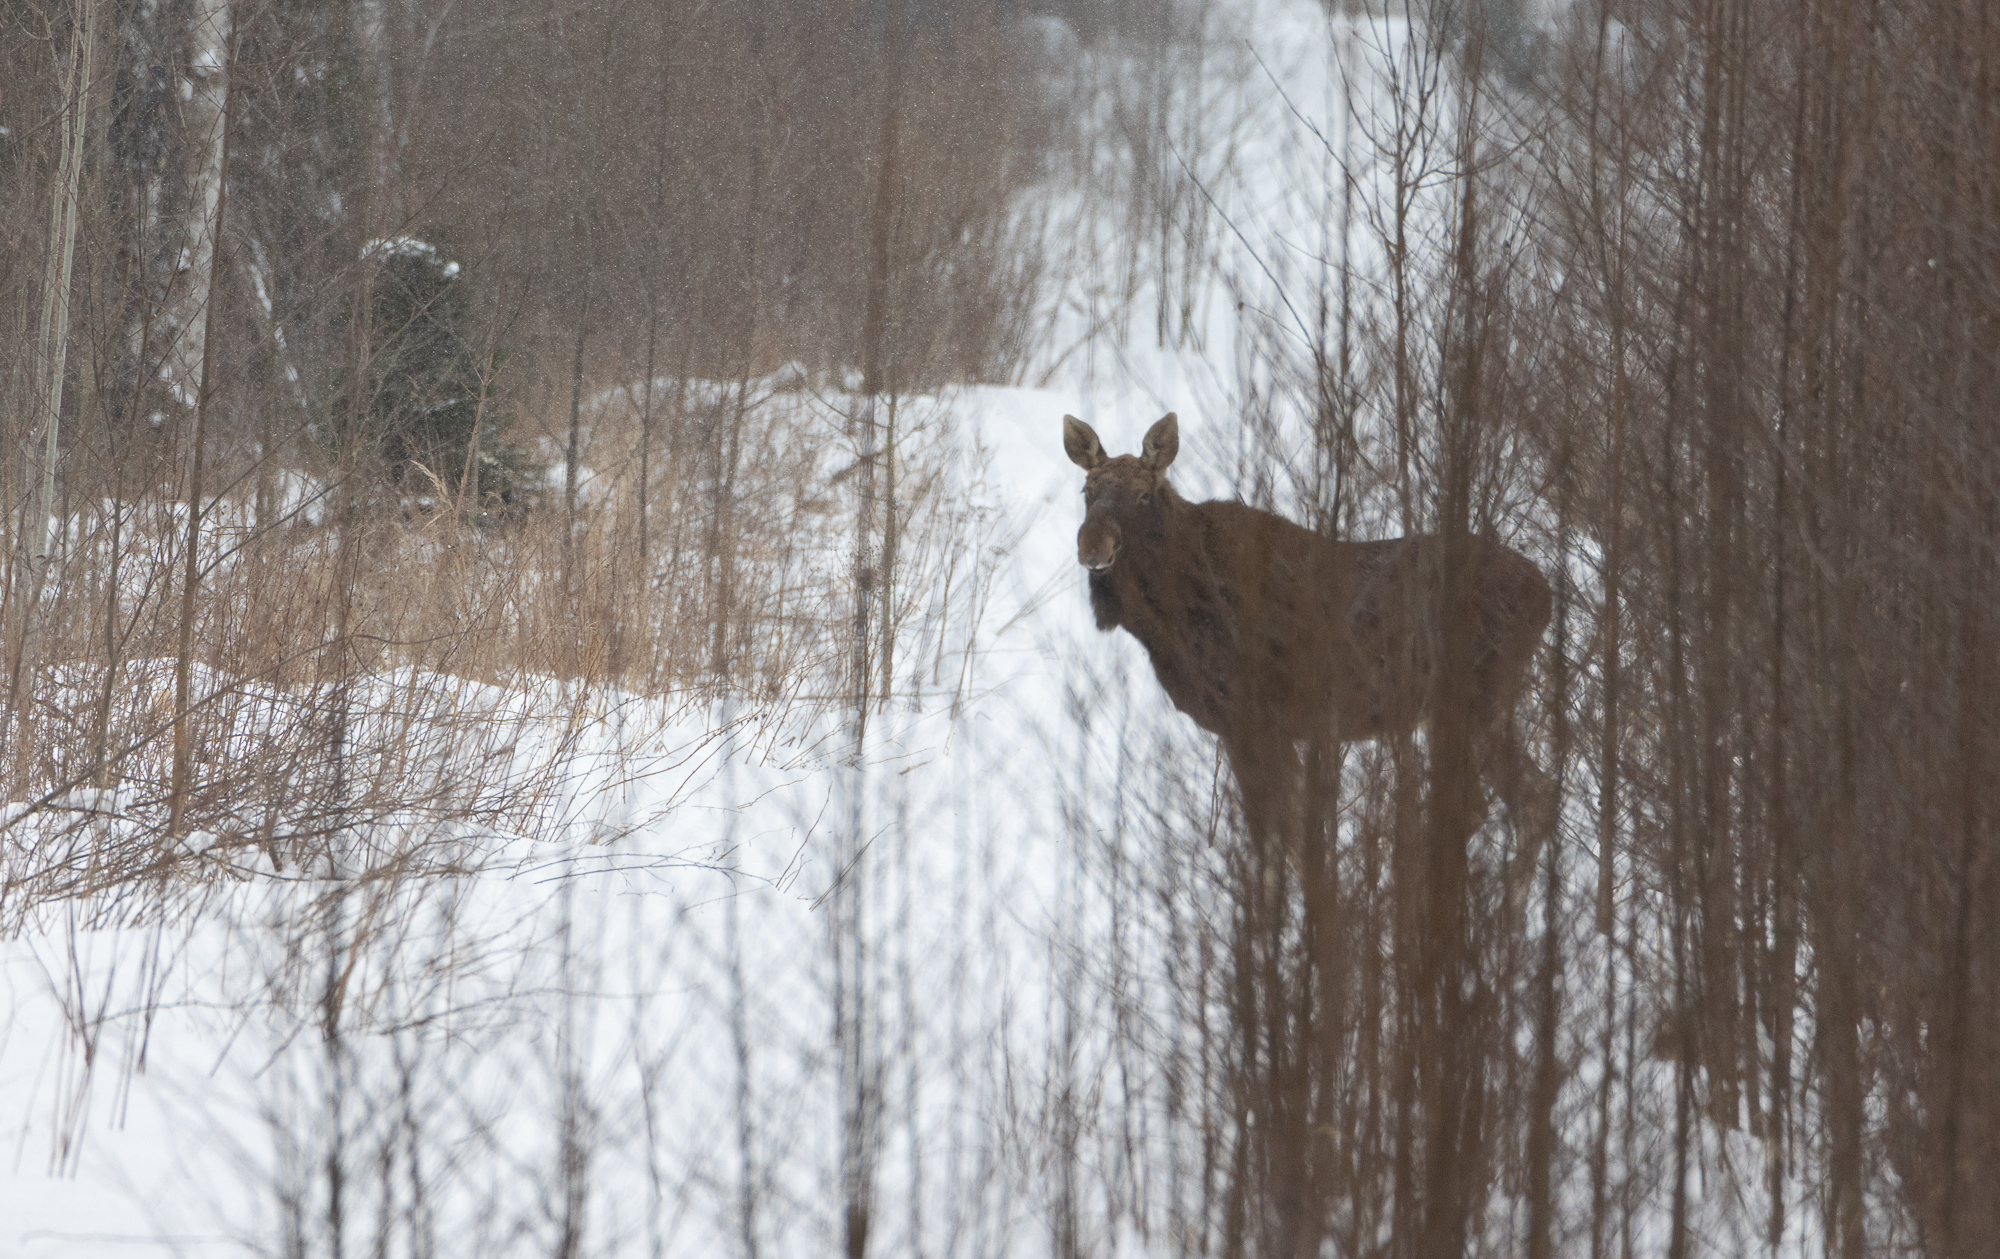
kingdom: Animalia
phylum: Chordata
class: Mammalia
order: Artiodactyla
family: Cervidae
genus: Alces
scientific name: Alces alces
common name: Moose
